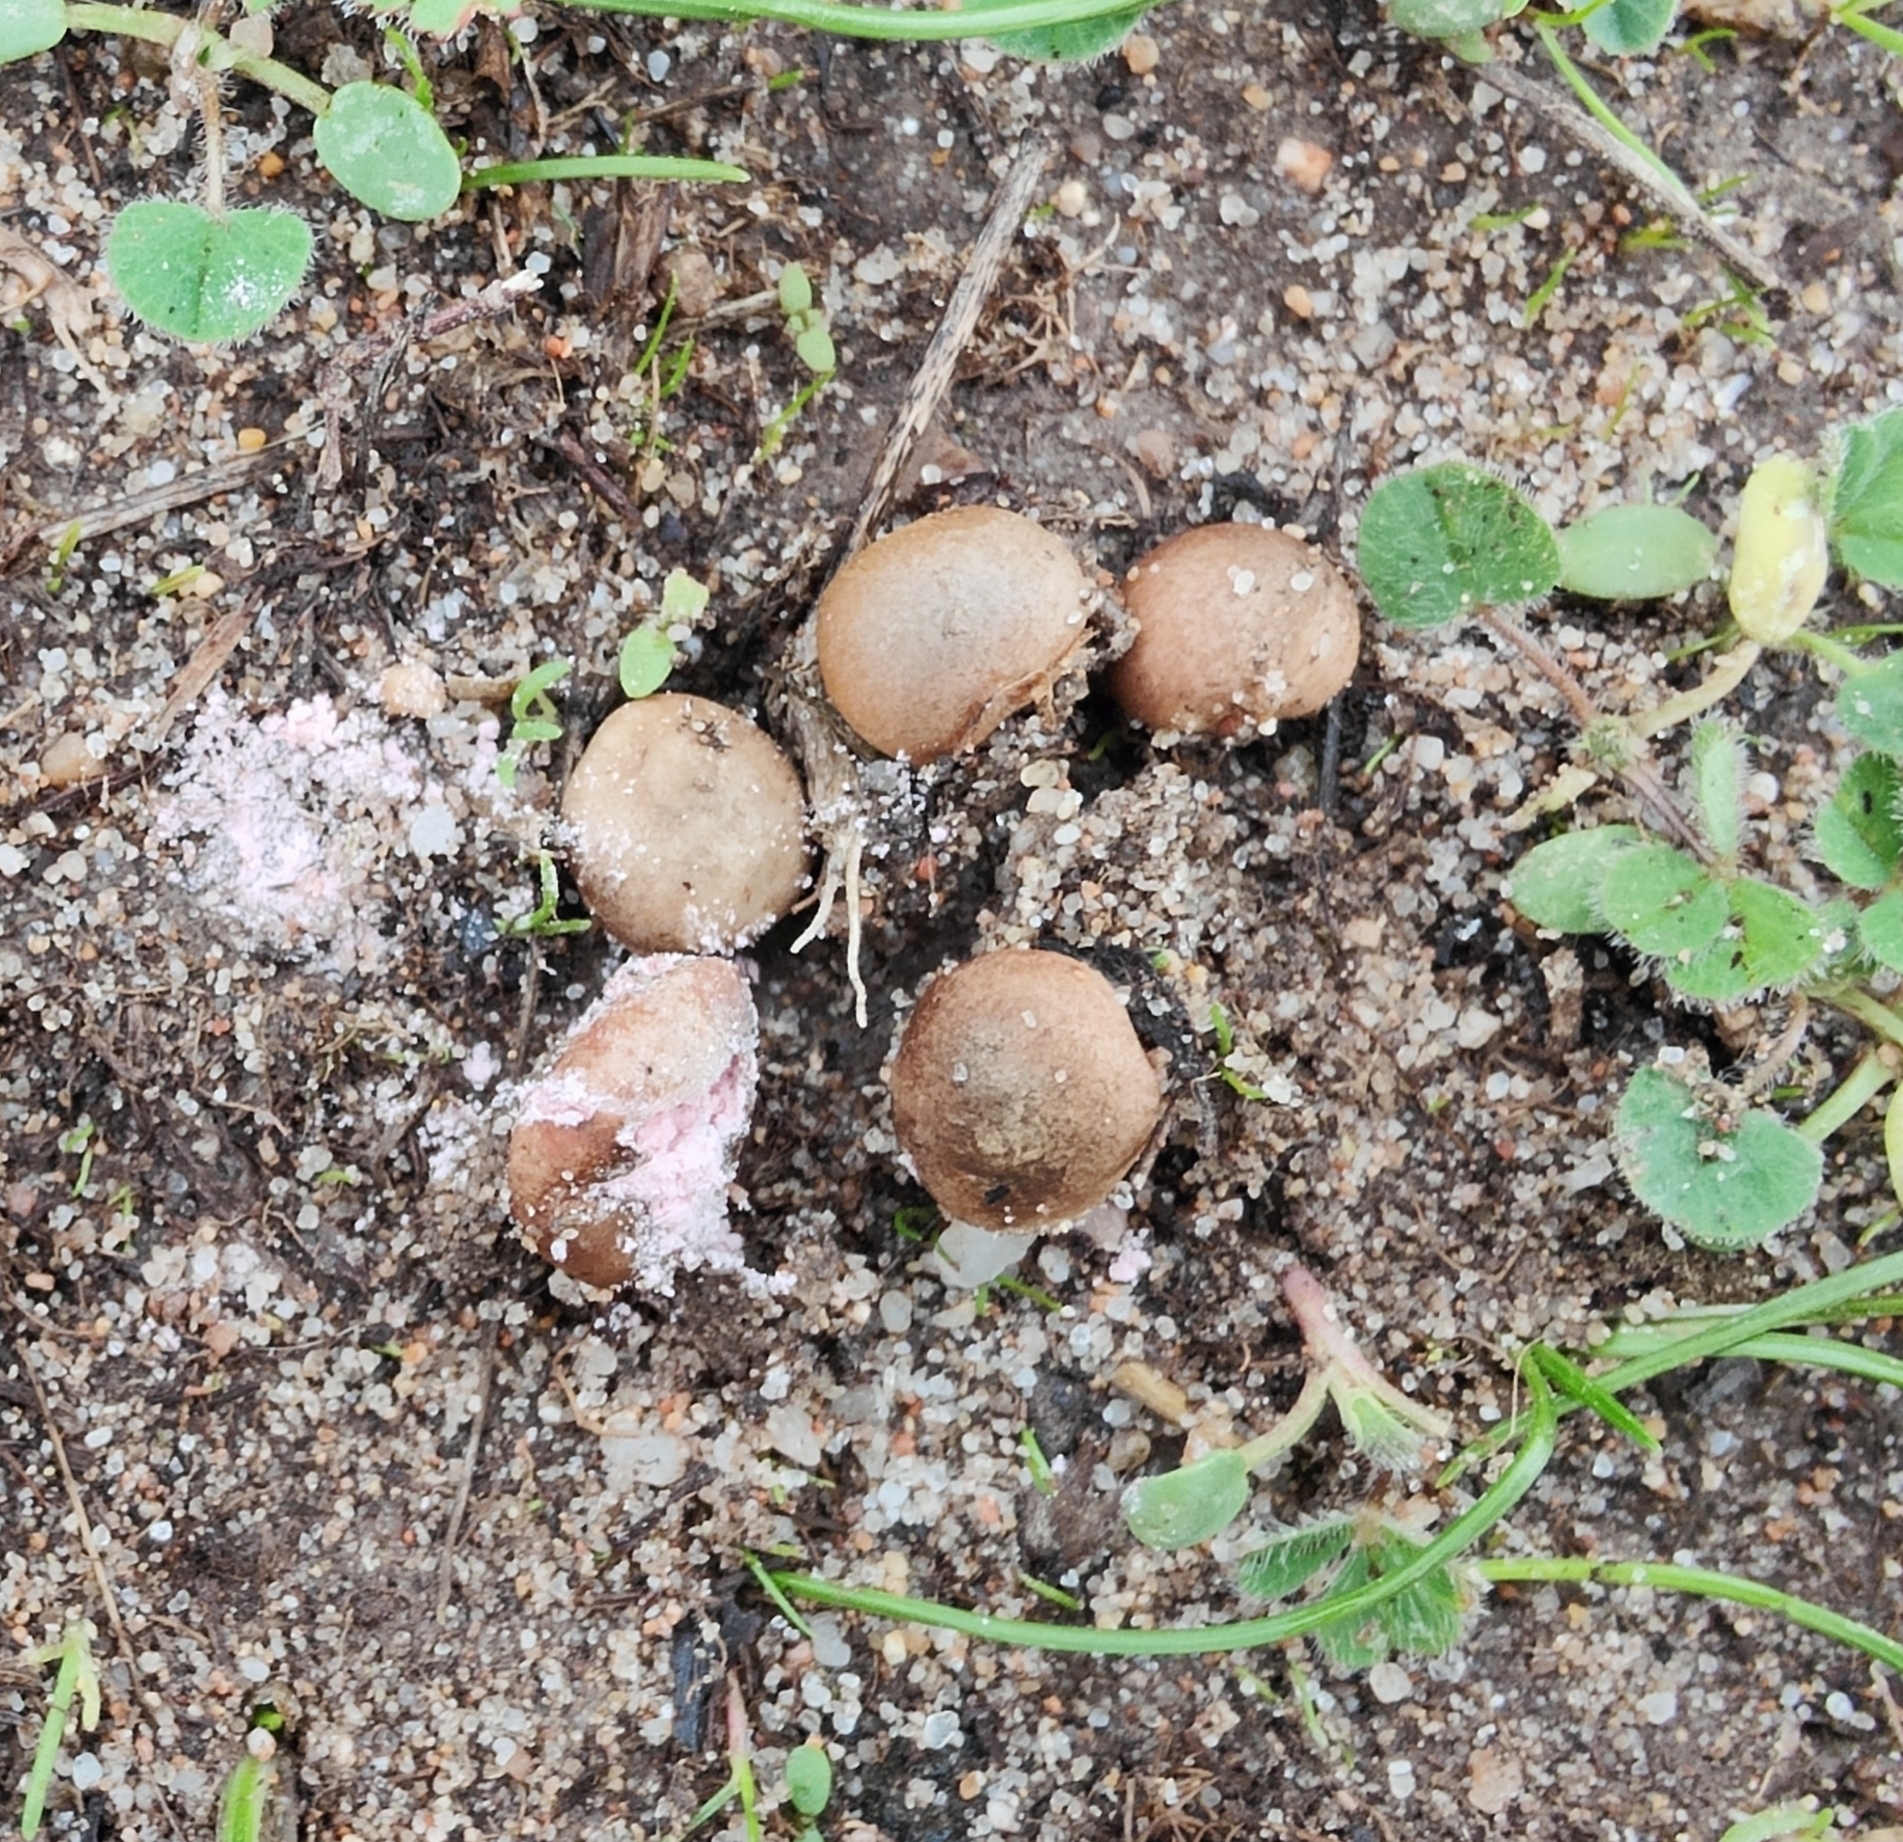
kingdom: Fungi
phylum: Ascomycota
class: Pezizomycetes
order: Pezizales
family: Pezizaceae
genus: Ostracoderma
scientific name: Ostracoderma torrendii
